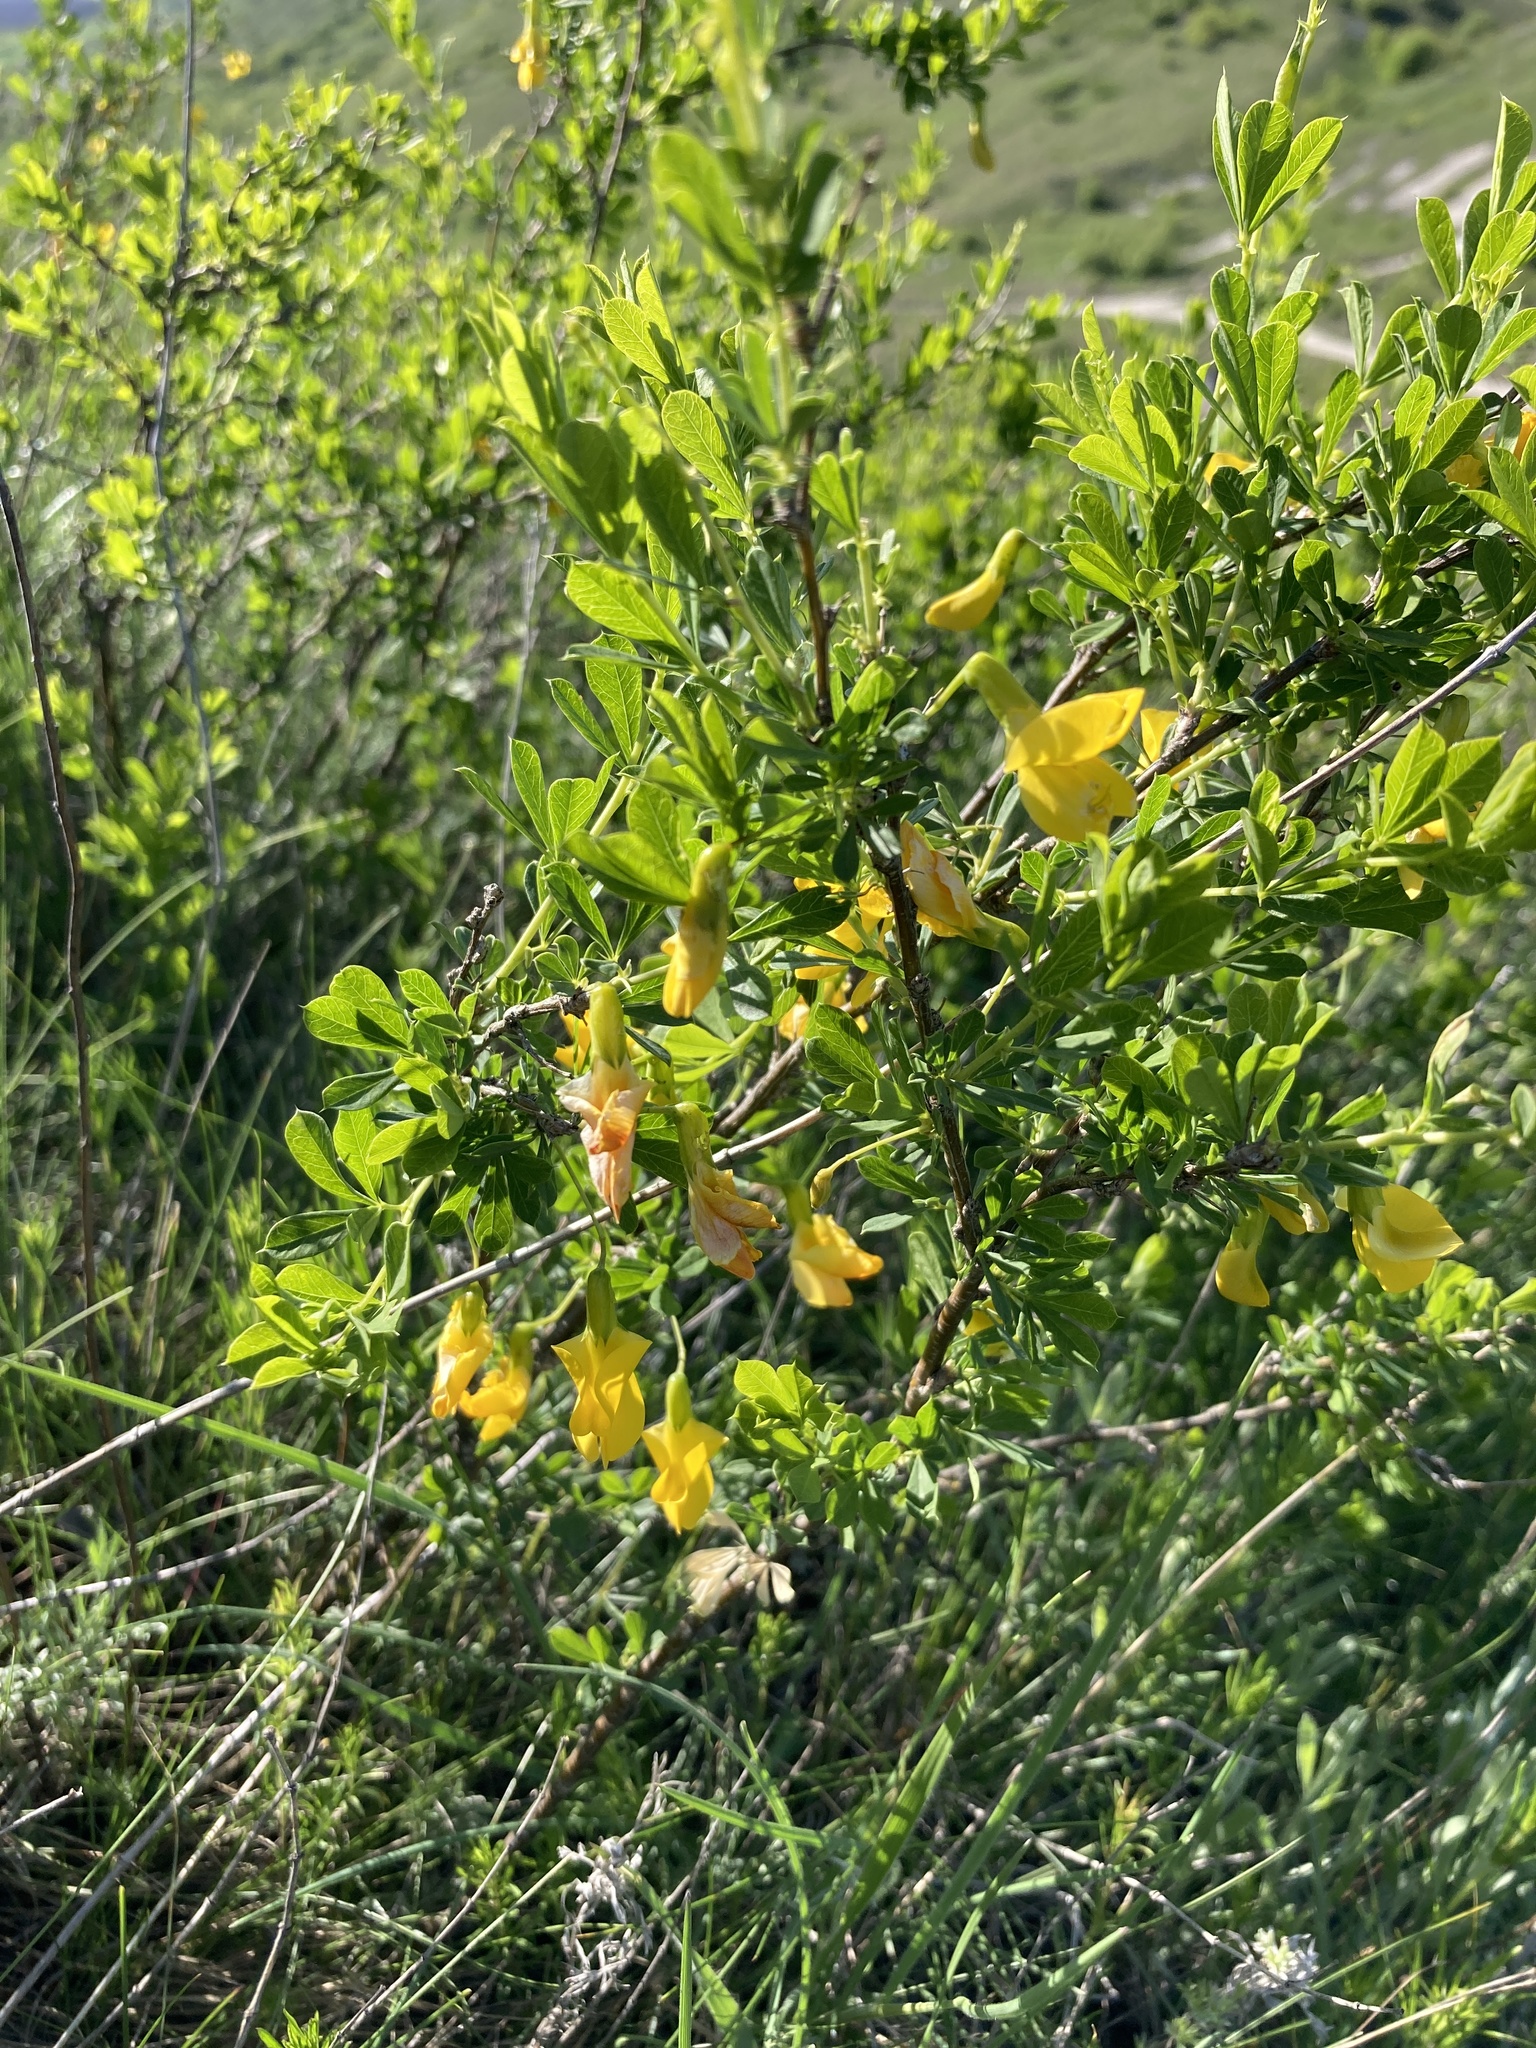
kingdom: Plantae
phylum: Tracheophyta
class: Magnoliopsida
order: Fabales
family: Fabaceae
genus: Caragana
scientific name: Caragana frutex
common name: Russian peashrub
